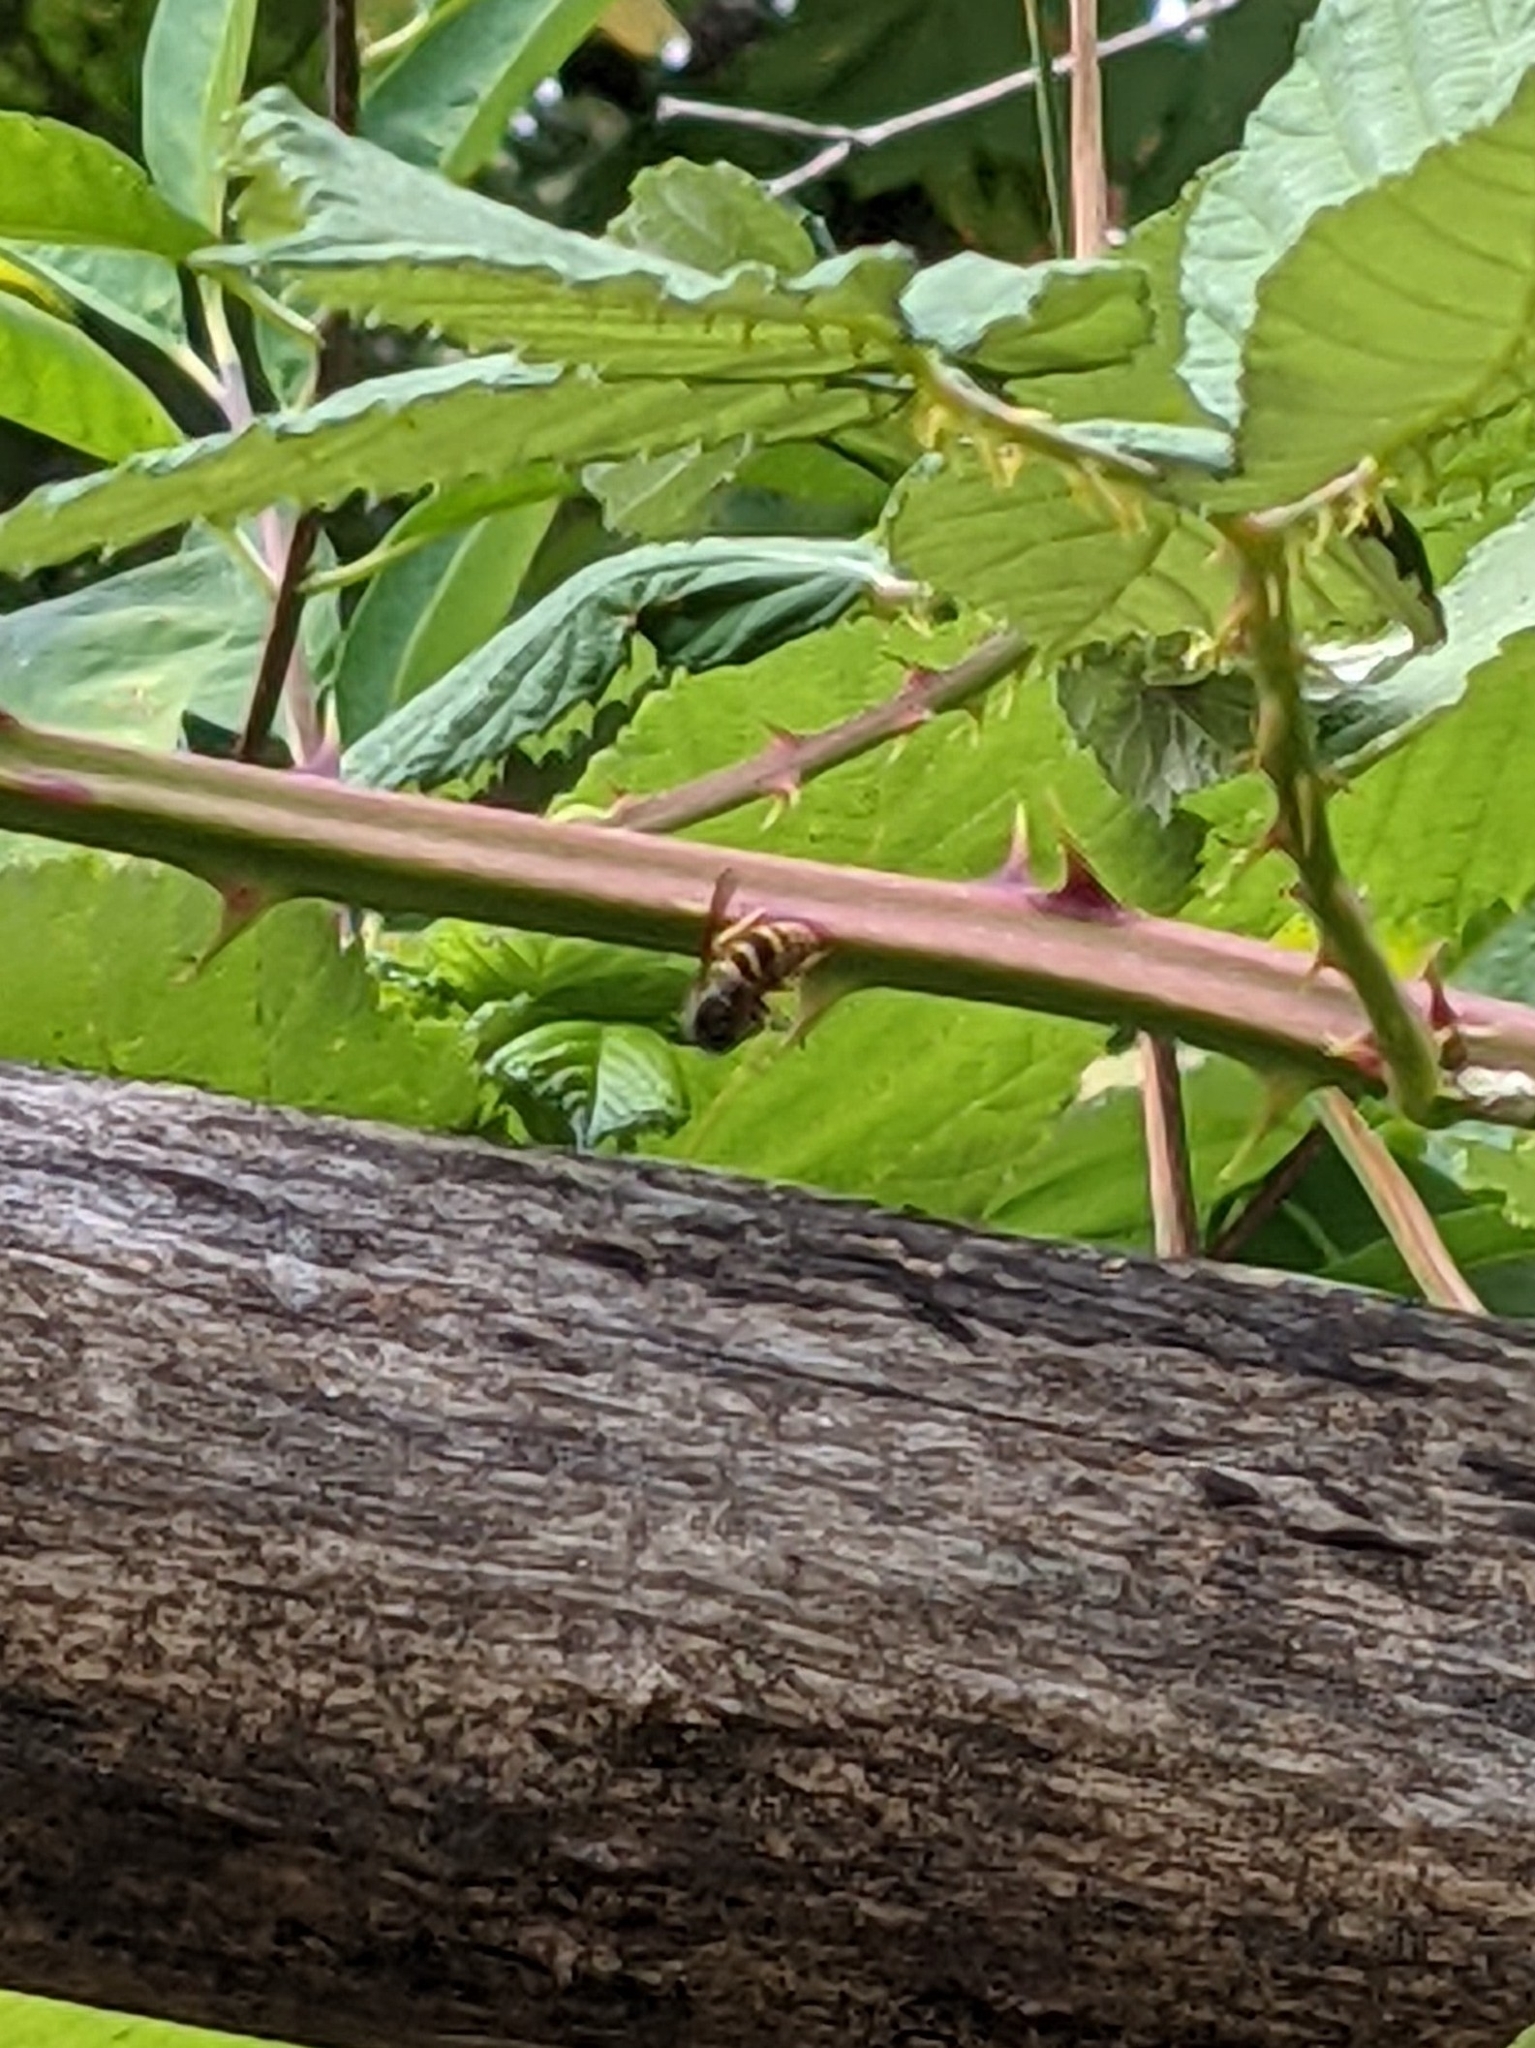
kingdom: Animalia
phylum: Arthropoda
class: Insecta
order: Hymenoptera
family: Vespidae
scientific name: Vespidae
